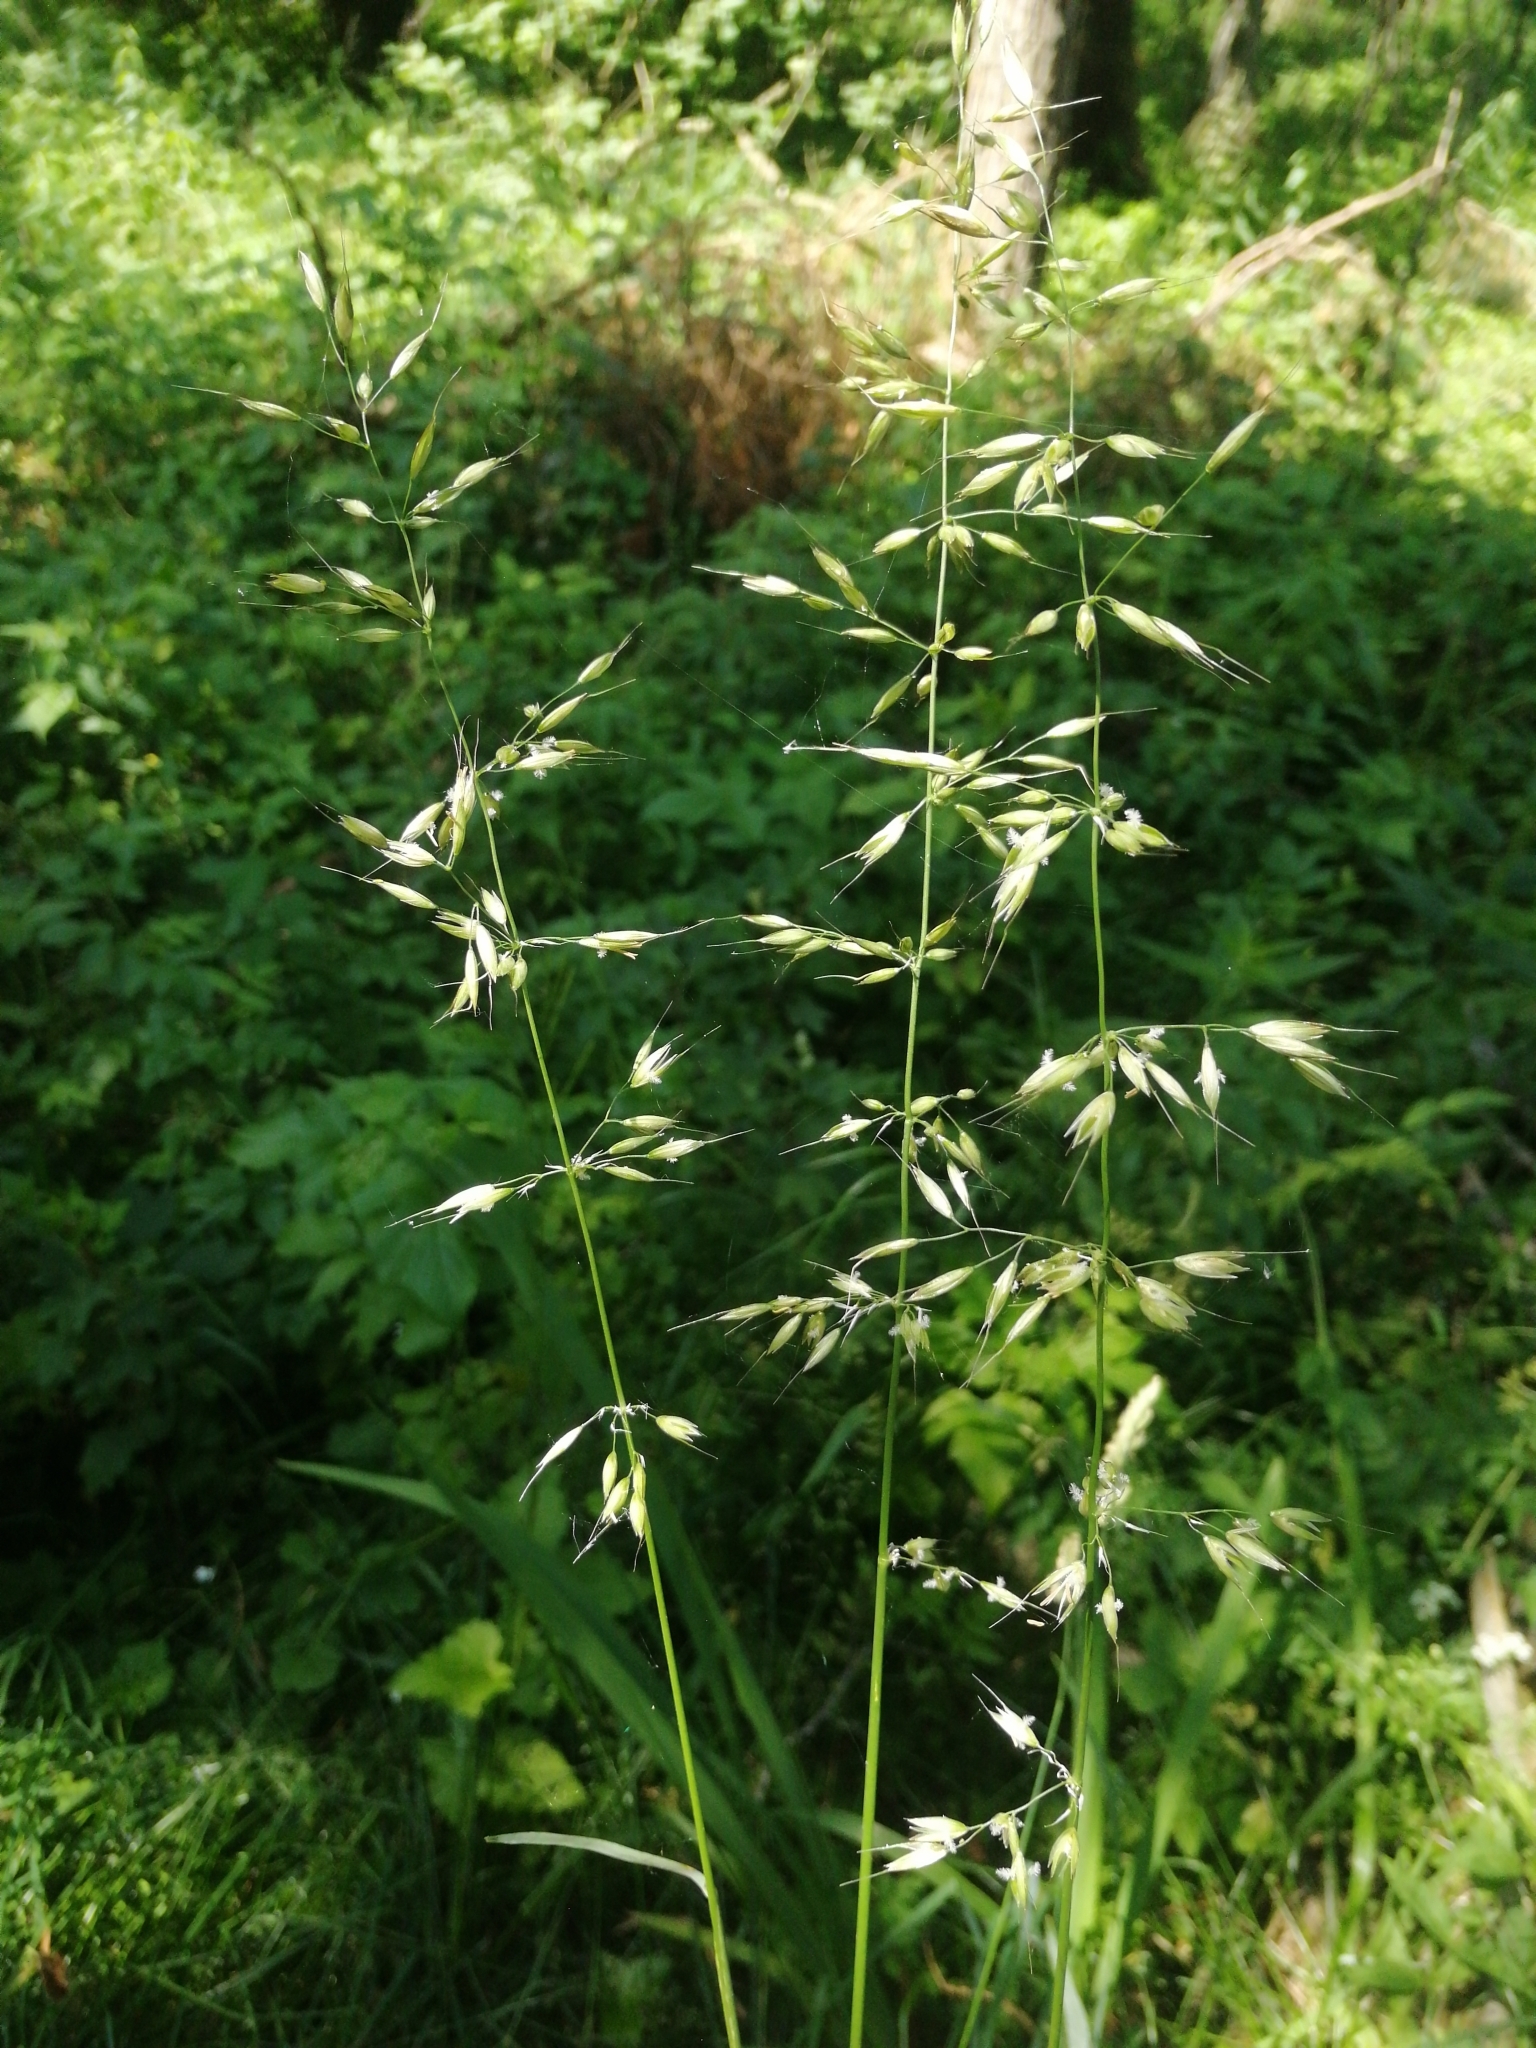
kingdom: Plantae
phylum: Tracheophyta
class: Liliopsida
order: Poales
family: Poaceae
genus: Arrhenatherum
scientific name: Arrhenatherum elatius
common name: Tall oatgrass
